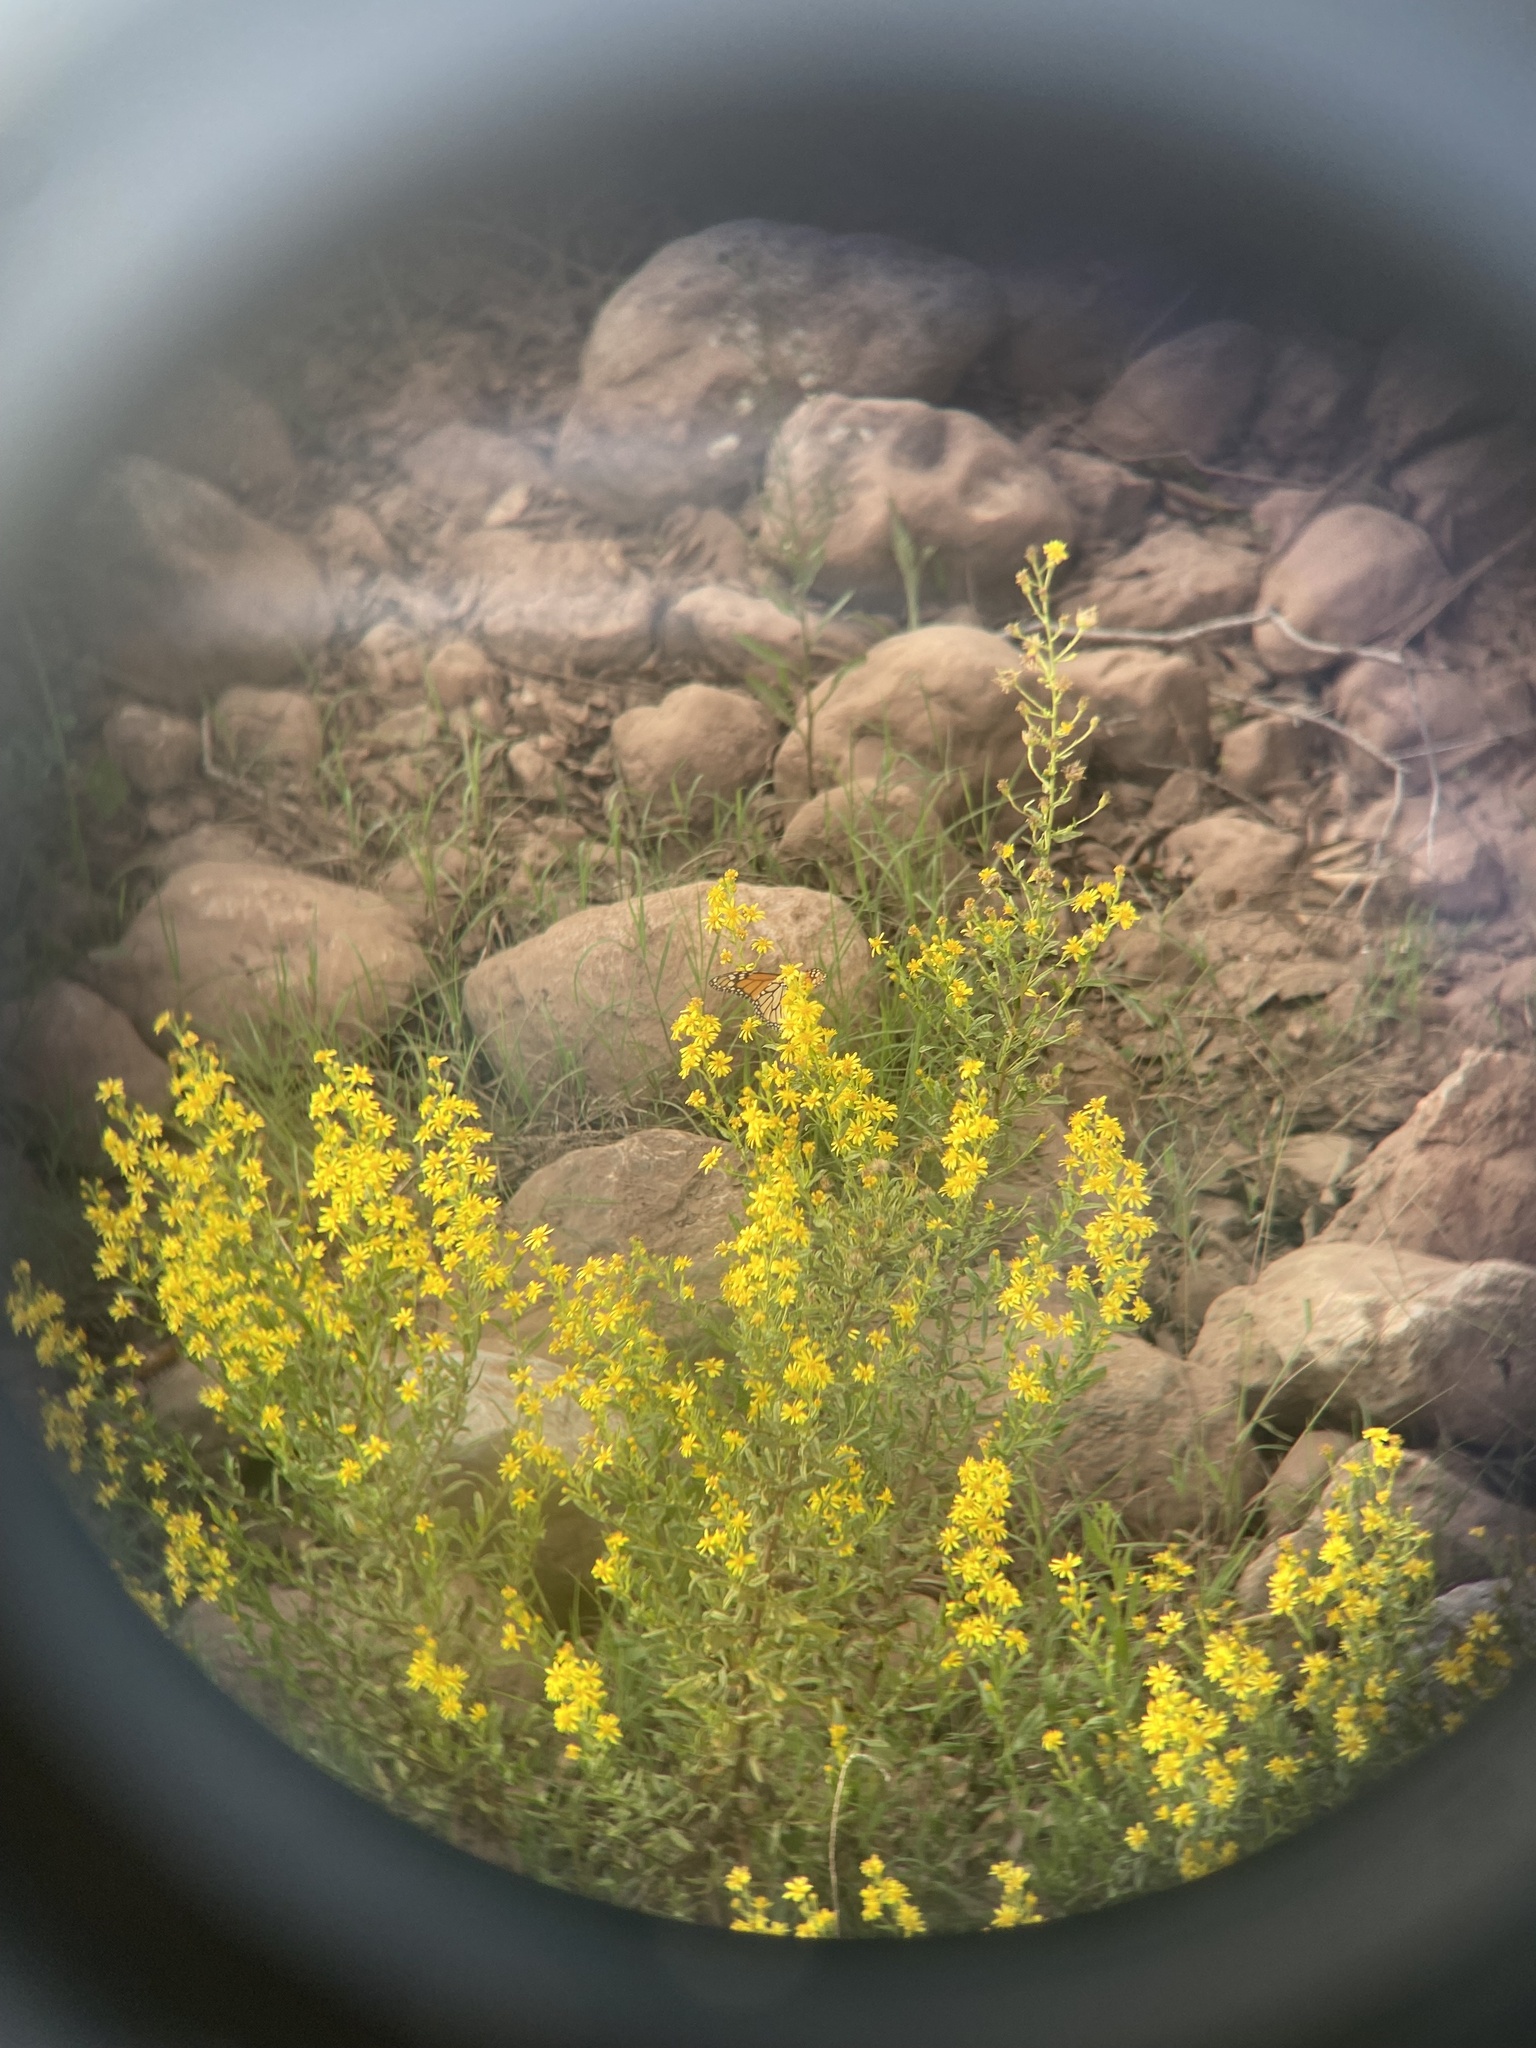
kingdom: Animalia
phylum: Arthropoda
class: Insecta
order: Lepidoptera
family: Nymphalidae
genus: Danaus
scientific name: Danaus plexippus
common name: Monarch
